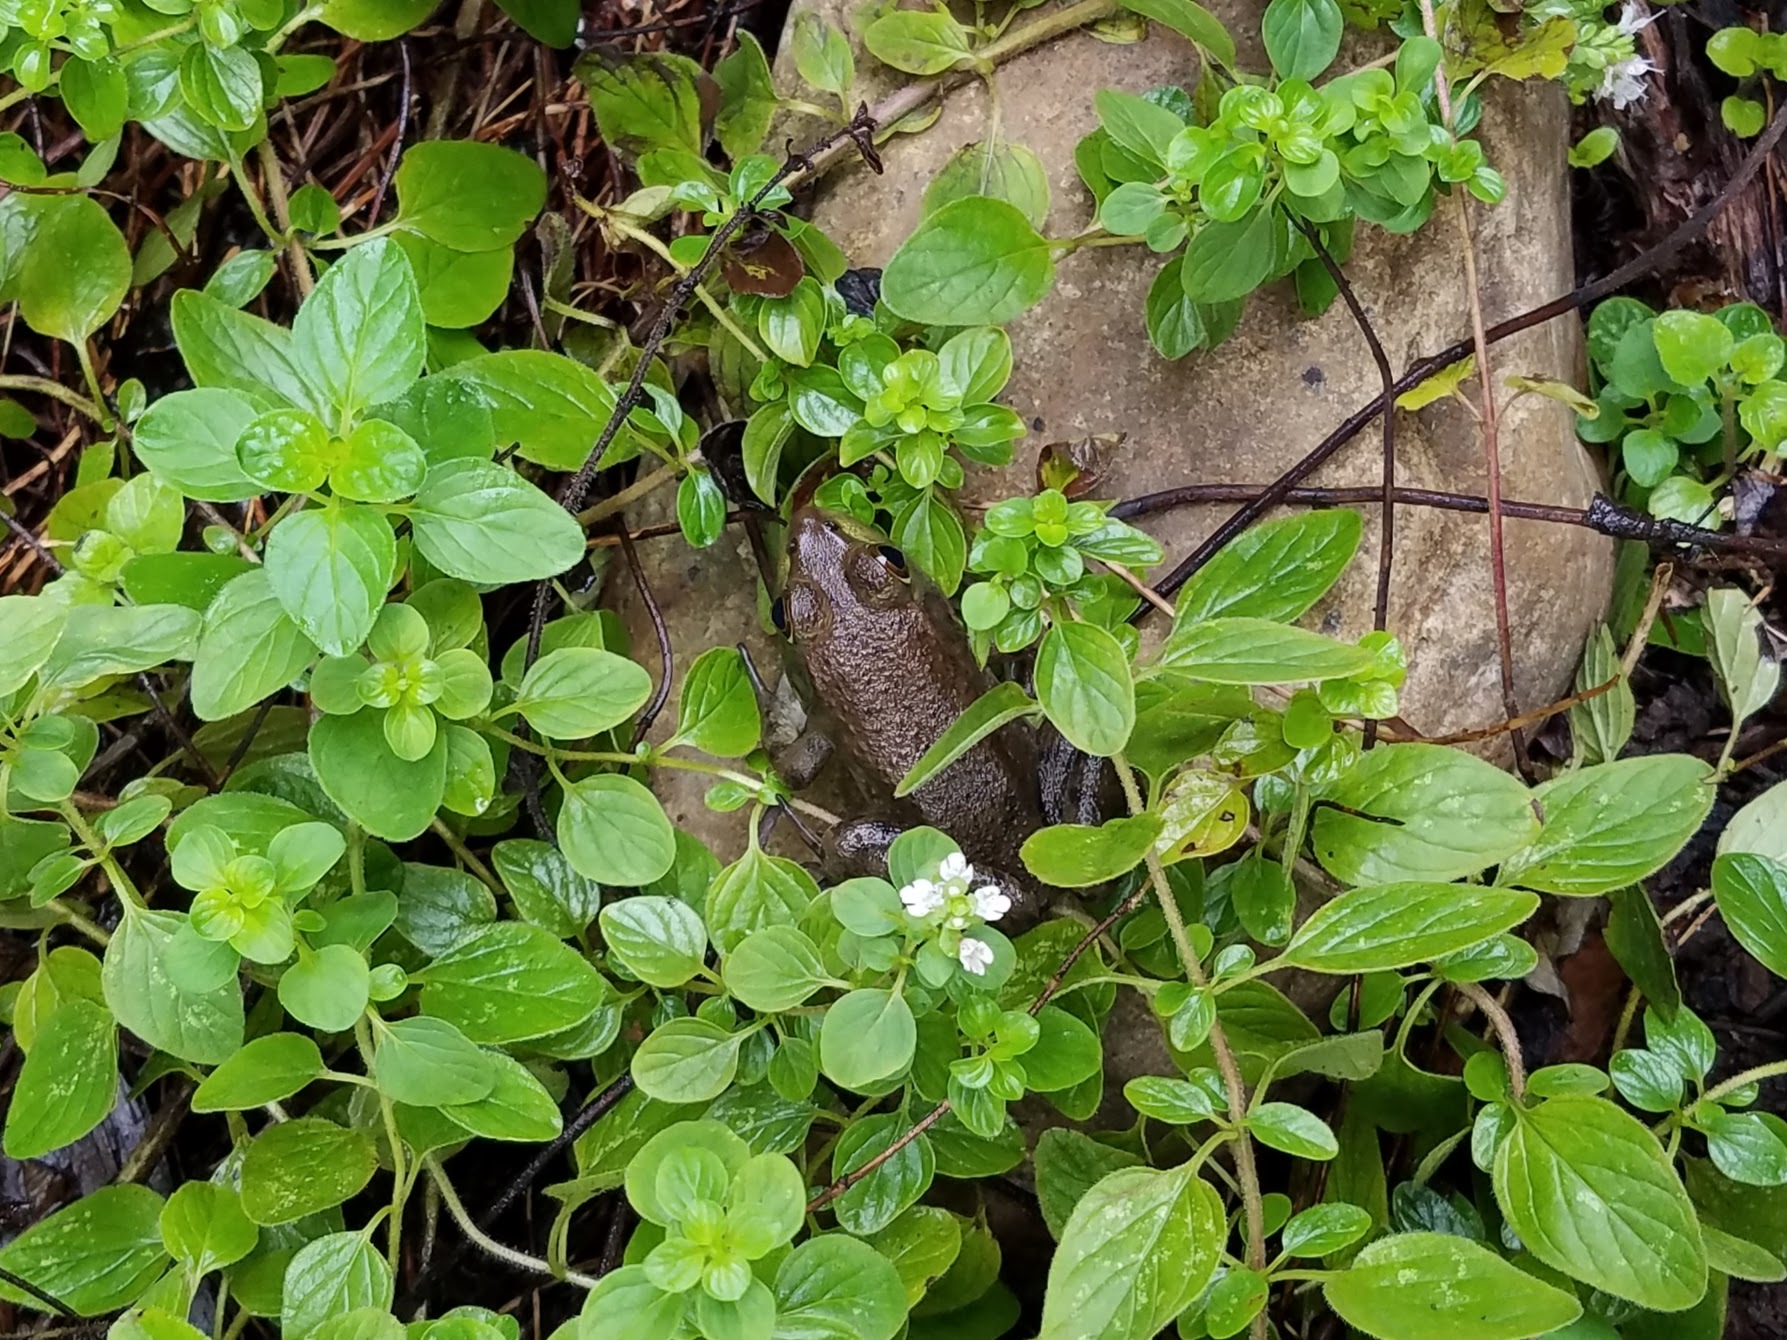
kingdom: Animalia
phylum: Chordata
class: Amphibia
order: Anura
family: Ranidae
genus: Lithobates
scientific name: Lithobates catesbeianus
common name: American bullfrog
